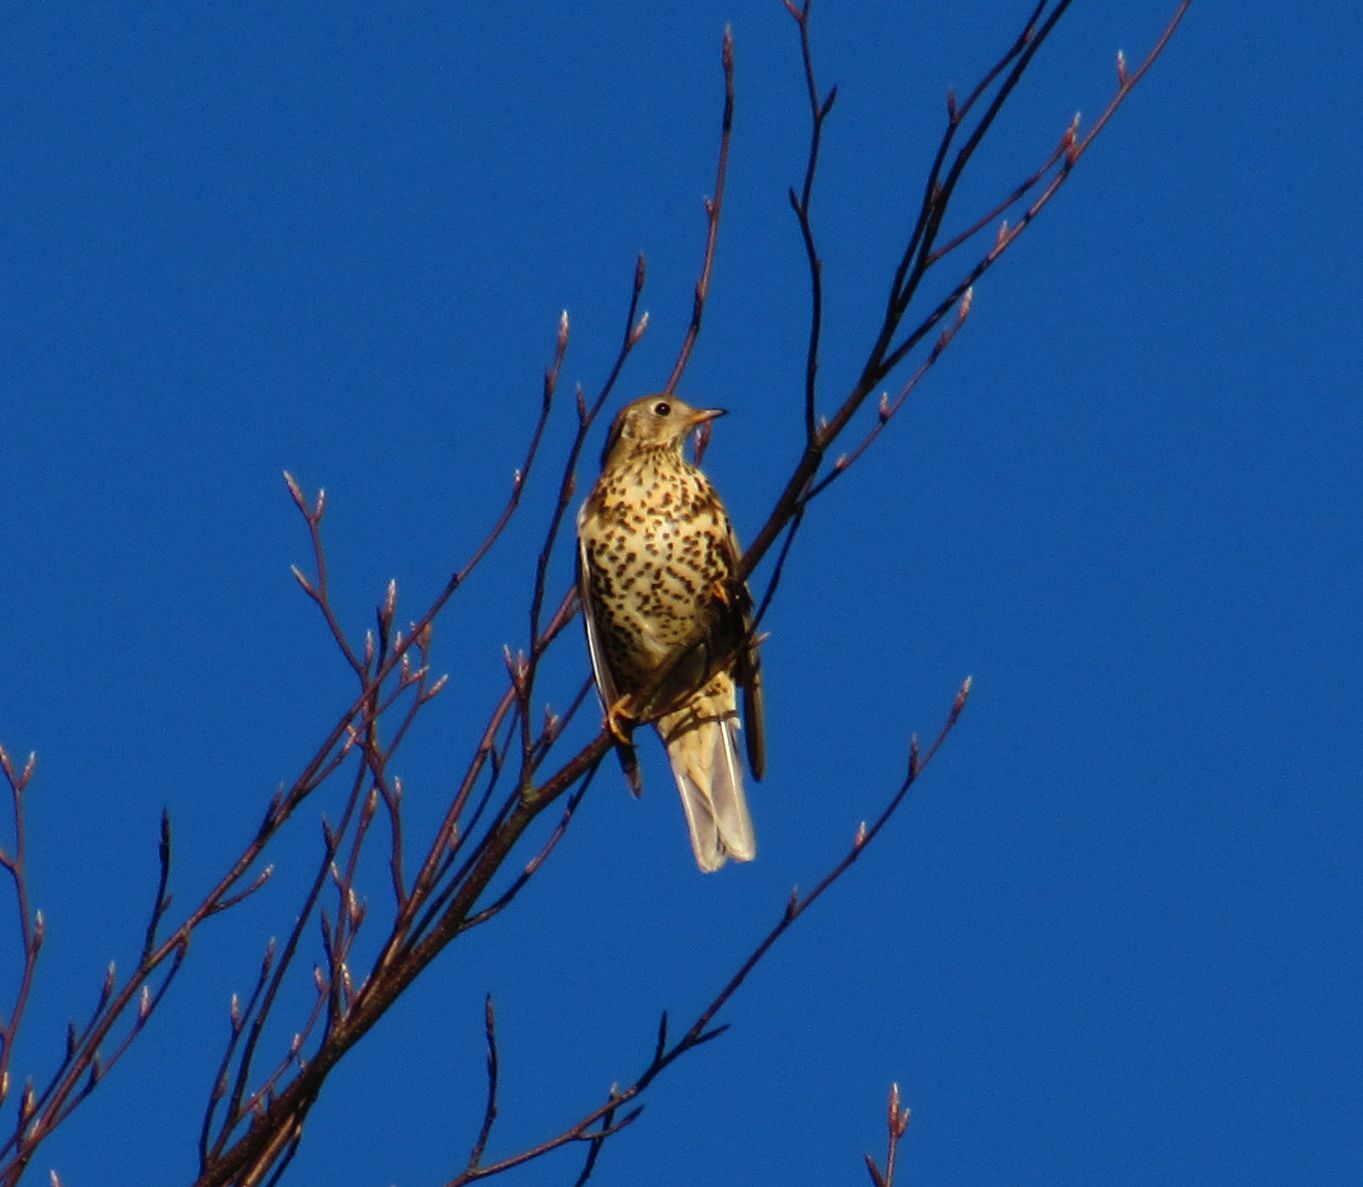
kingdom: Animalia
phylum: Chordata
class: Aves
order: Passeriformes
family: Turdidae
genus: Turdus
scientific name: Turdus viscivorus
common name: Mistle thrush
